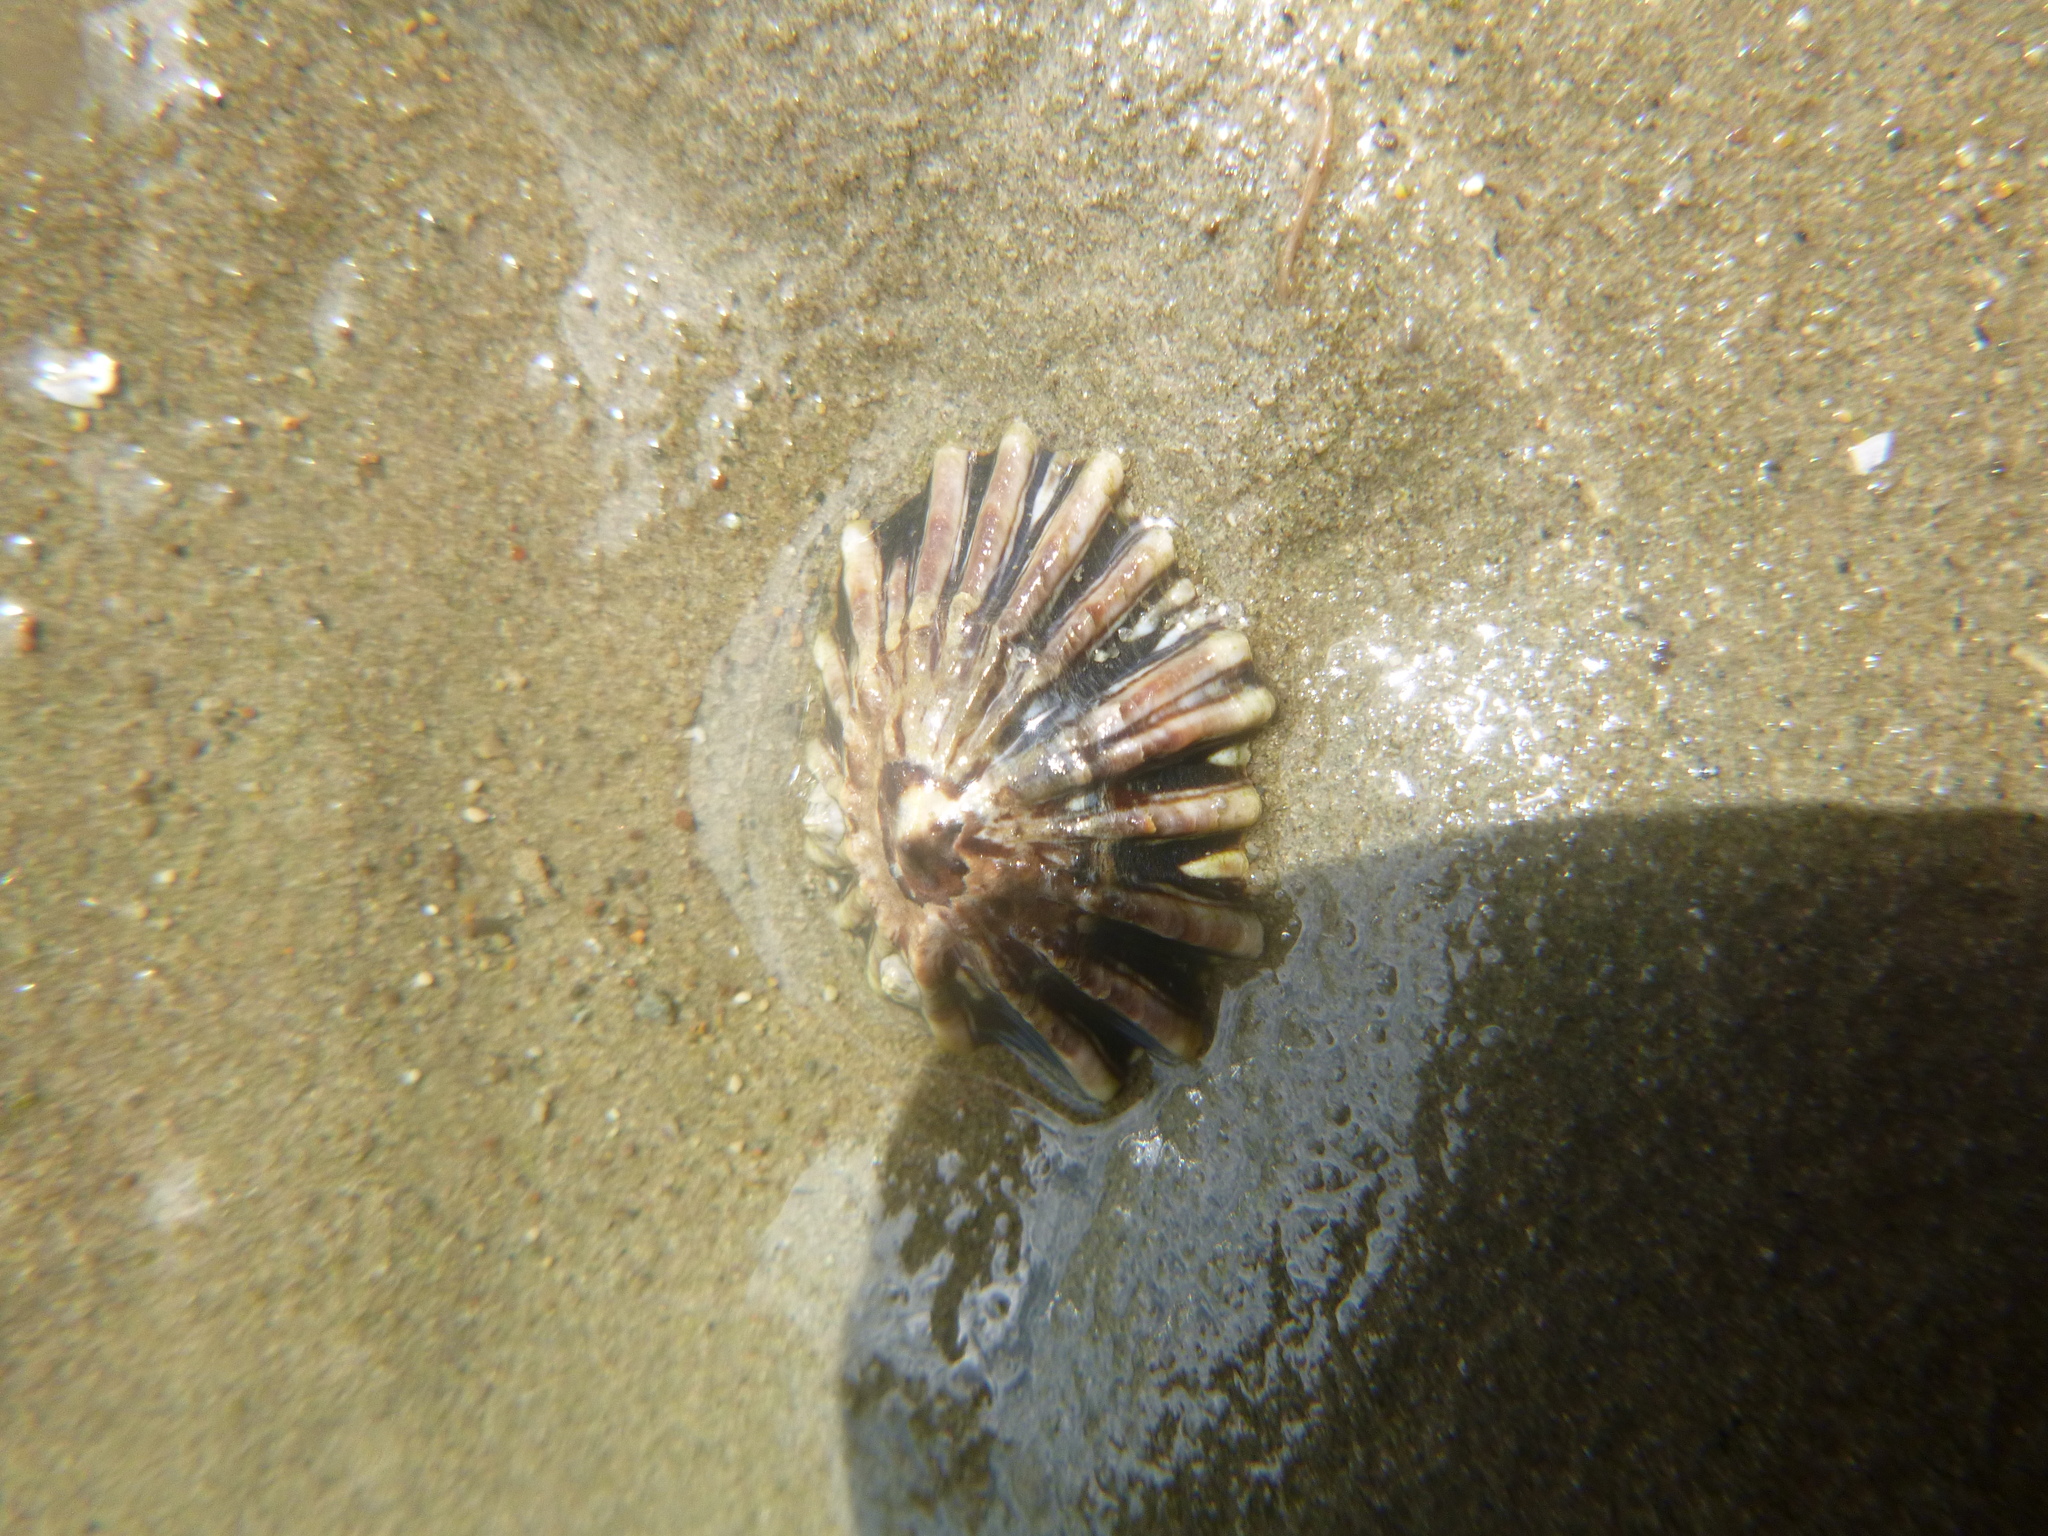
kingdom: Animalia
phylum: Mollusca
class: Gastropoda
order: Siphonariida
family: Siphonariidae
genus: Siphonaria
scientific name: Siphonaria australis
